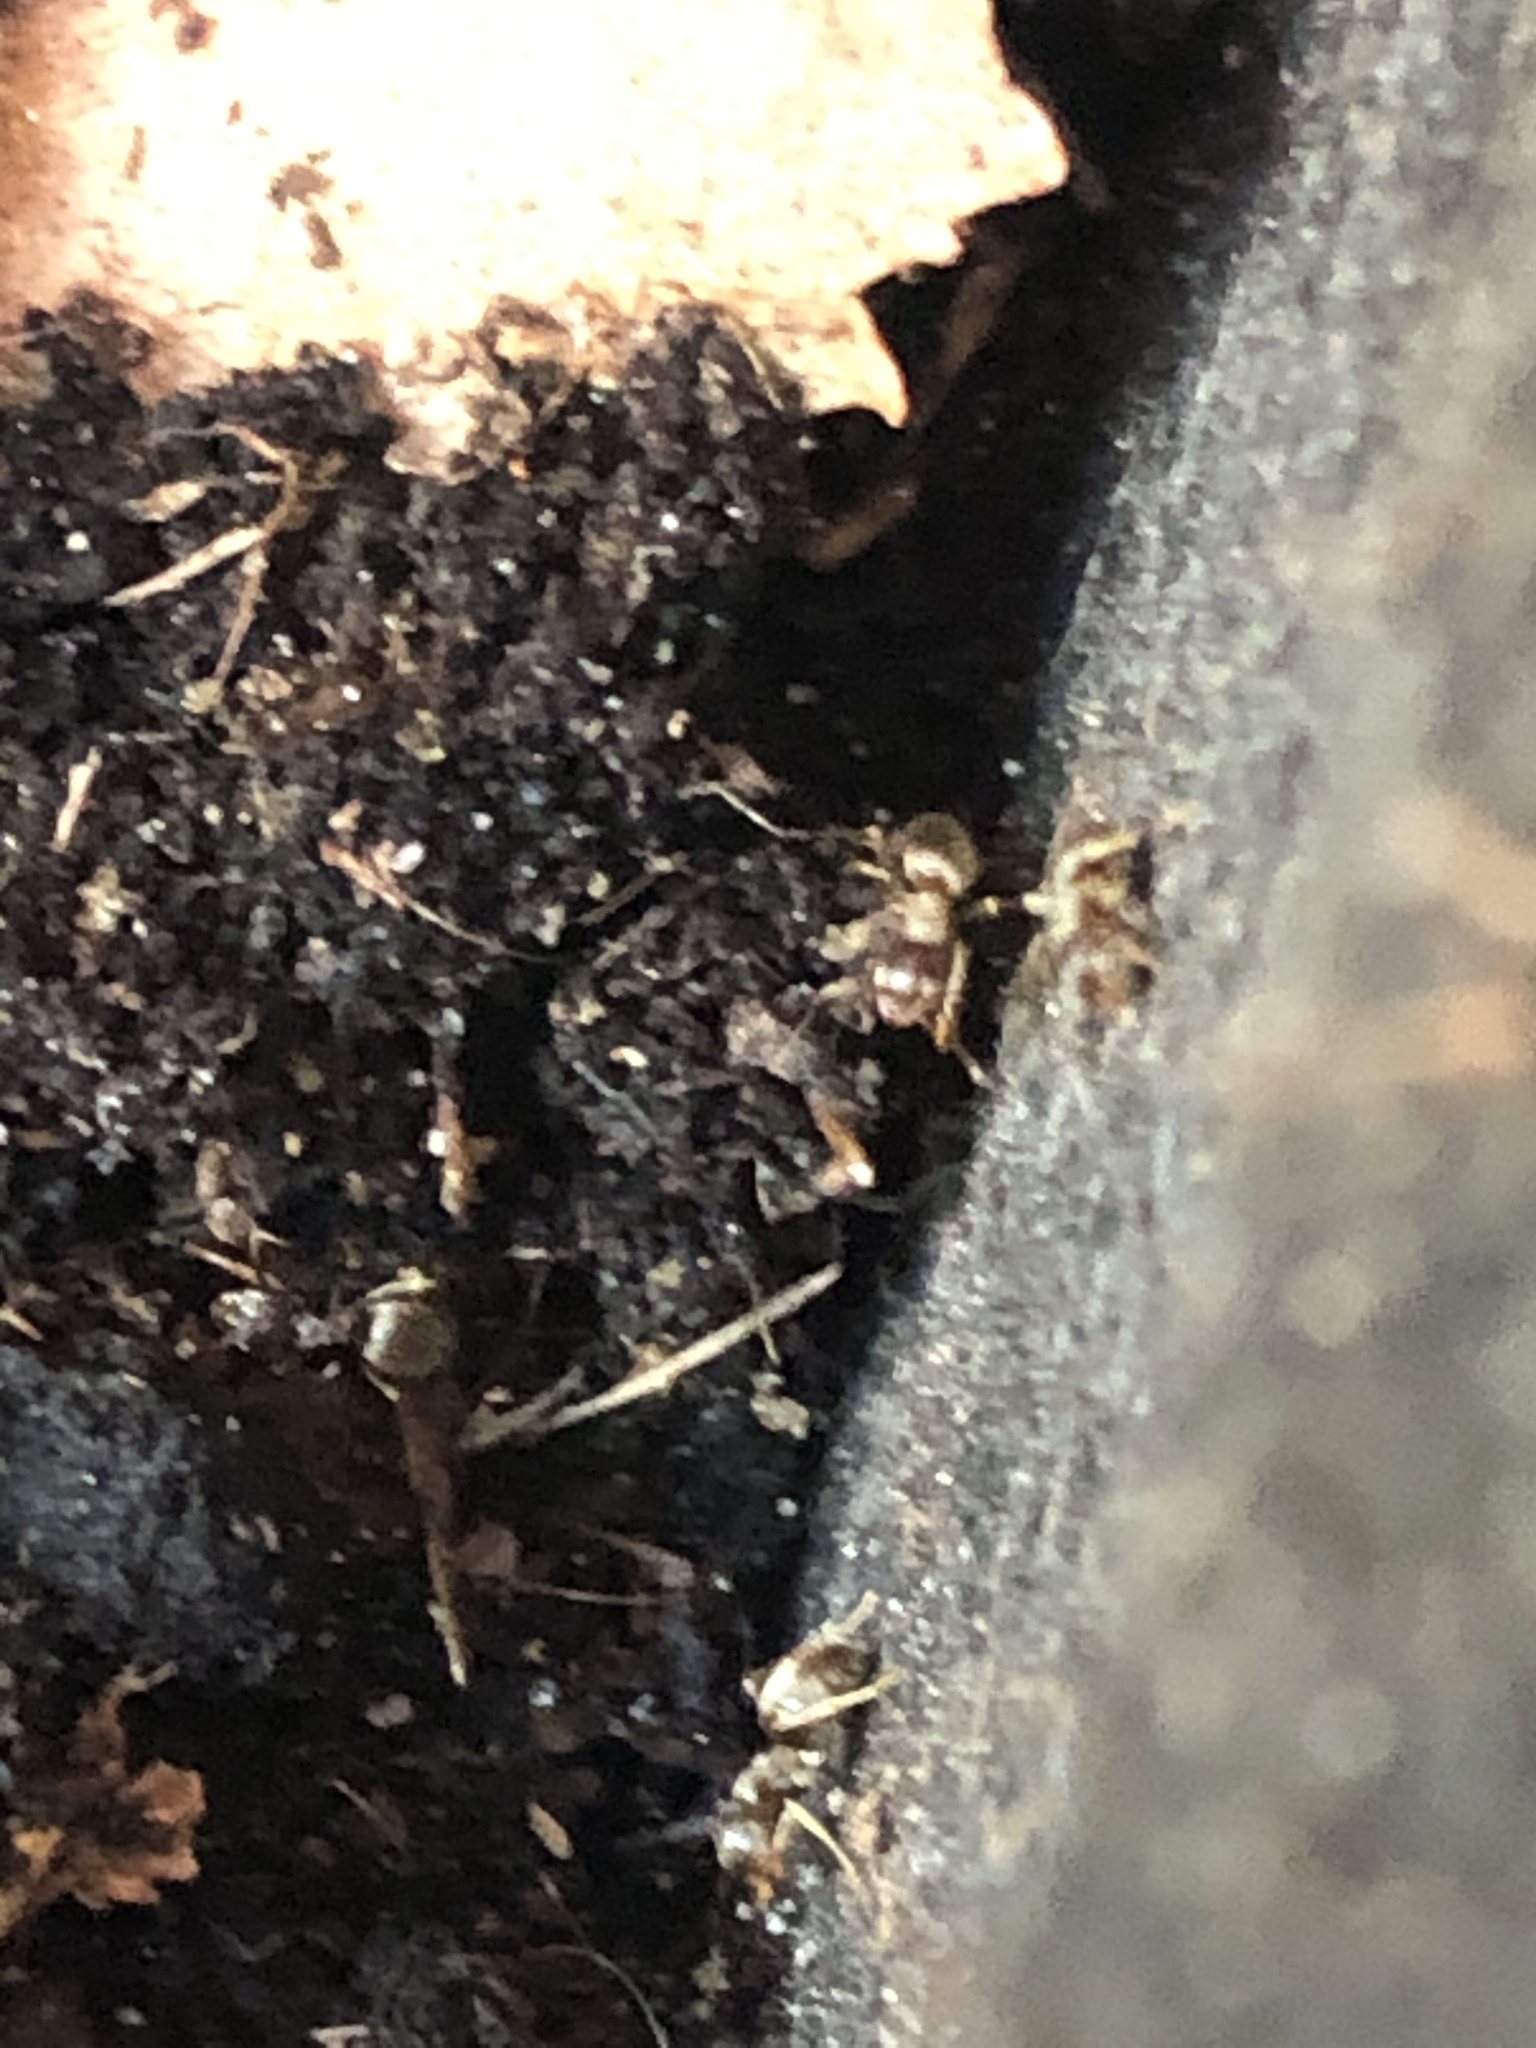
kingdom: Animalia
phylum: Arthropoda
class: Insecta
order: Hymenoptera
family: Formicidae
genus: Lasius
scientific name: Lasius neoniger
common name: Turfgrass ant
